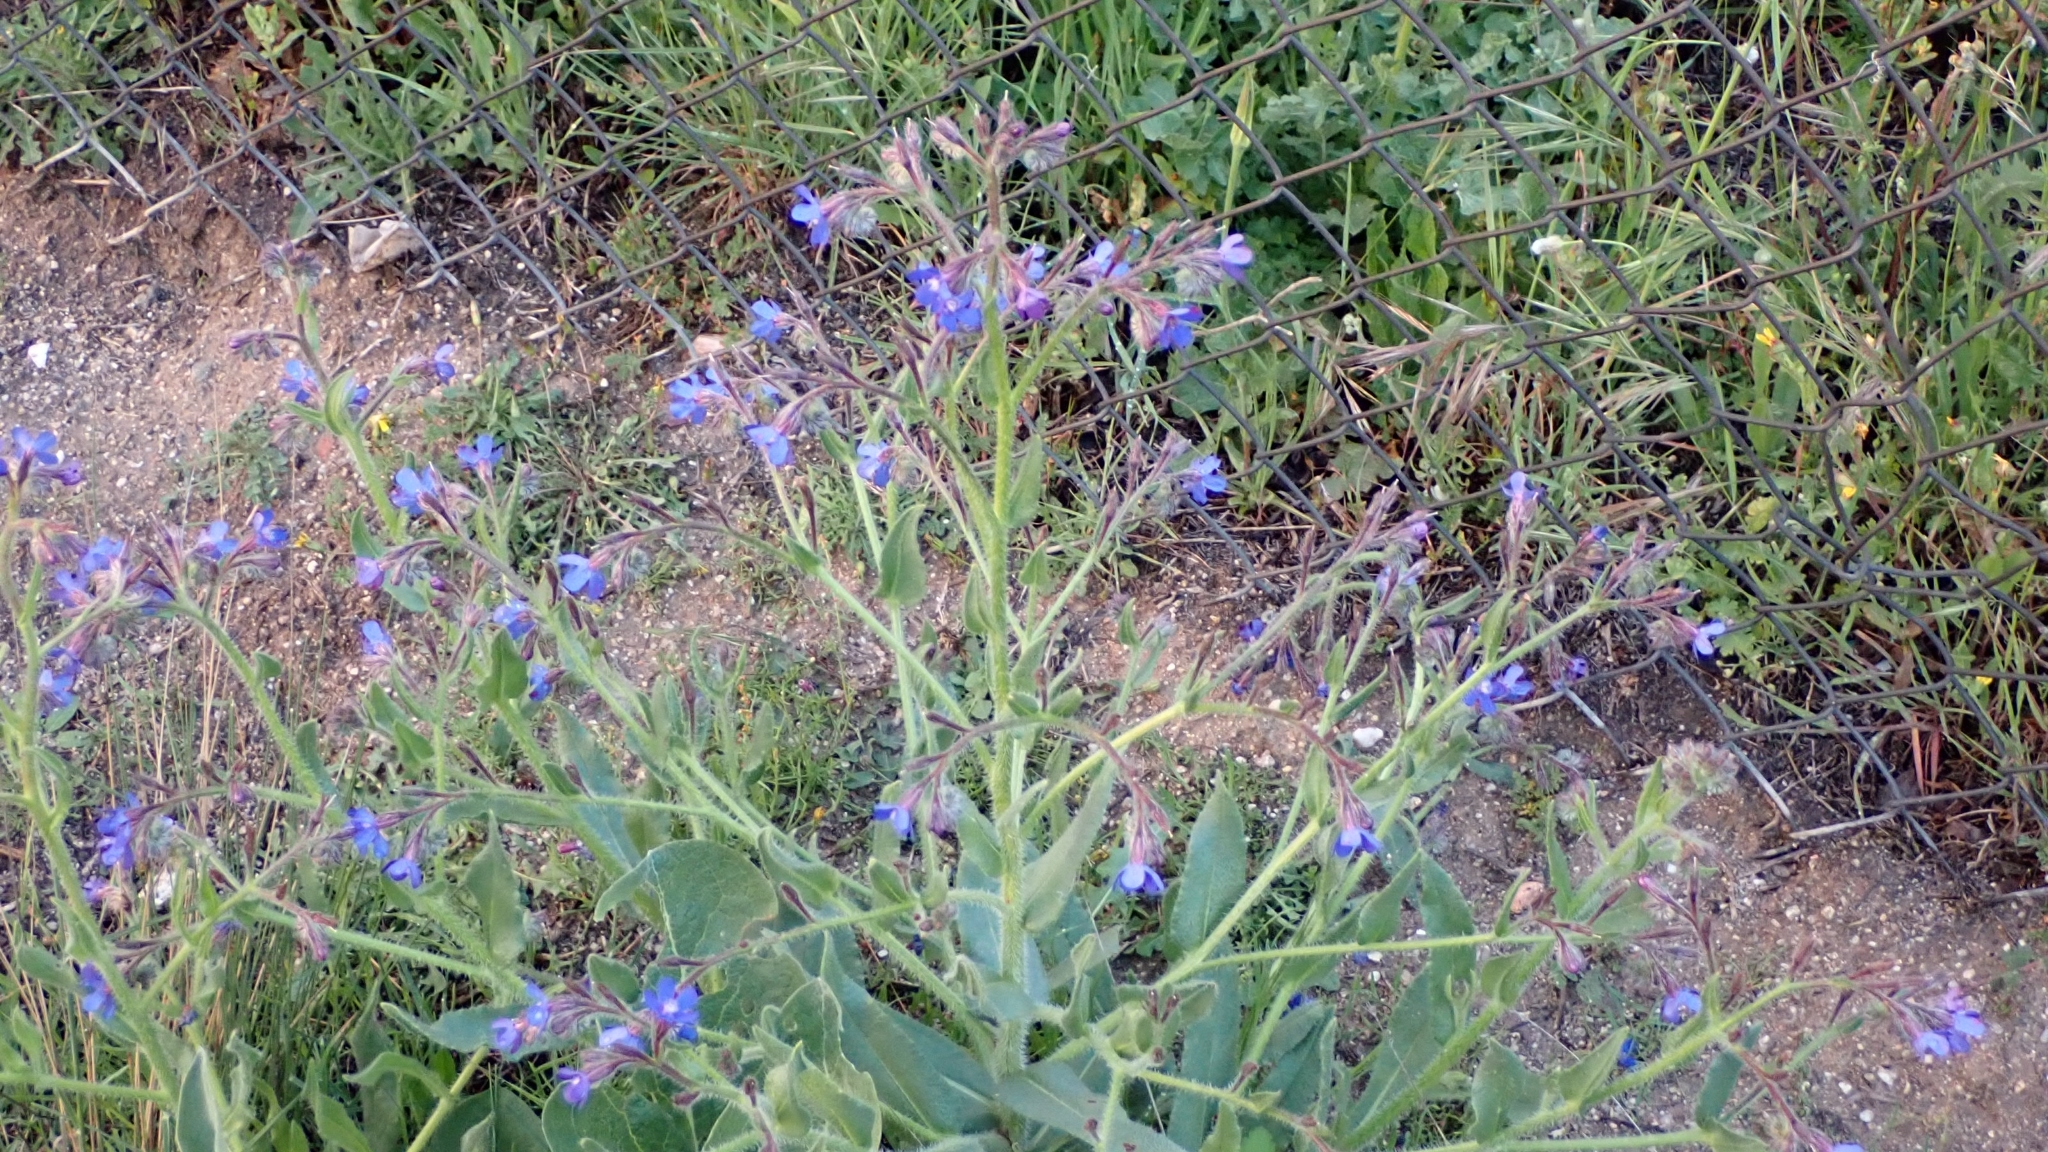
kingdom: Plantae
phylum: Tracheophyta
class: Magnoliopsida
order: Boraginales
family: Boraginaceae
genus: Anchusa
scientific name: Anchusa azurea
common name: Garden anchusa
